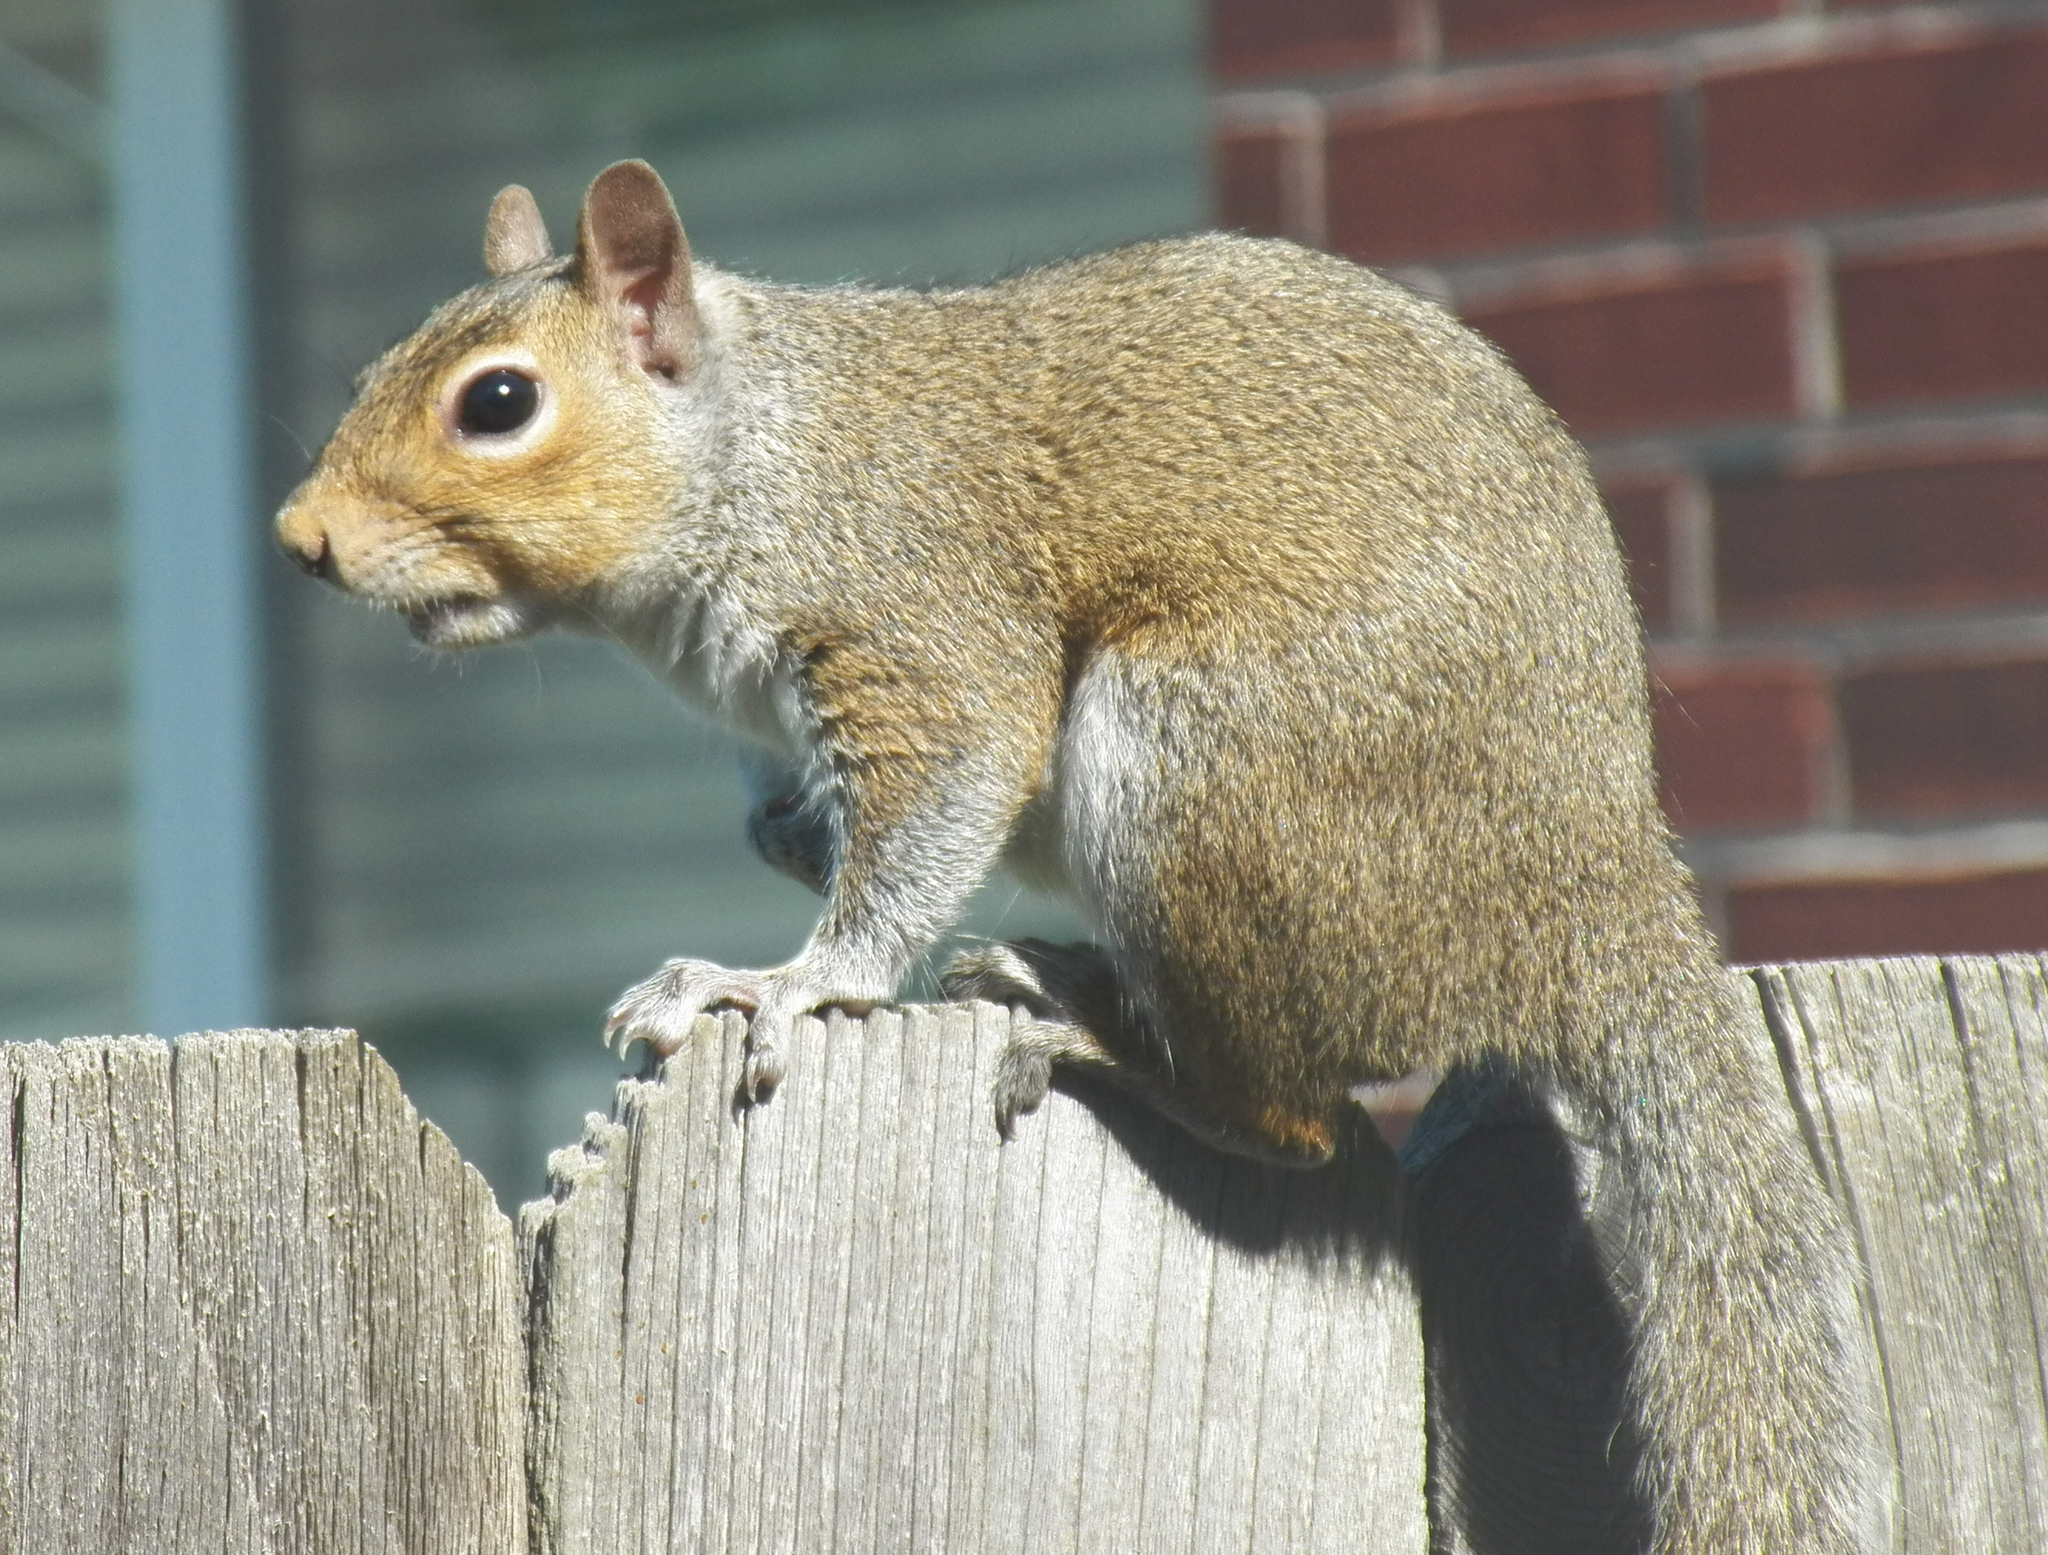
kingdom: Animalia
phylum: Chordata
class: Mammalia
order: Rodentia
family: Sciuridae
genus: Sciurus
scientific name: Sciurus carolinensis
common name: Eastern gray squirrel
